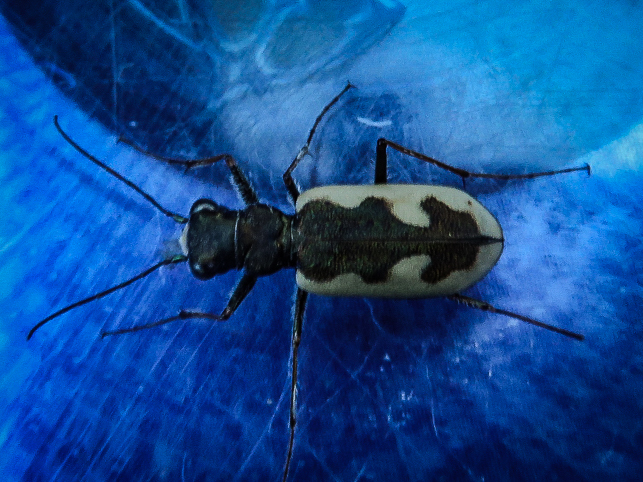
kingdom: Animalia
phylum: Arthropoda
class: Insecta
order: Coleoptera
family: Carabidae
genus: Neocicindela
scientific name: Neocicindela latecincta
